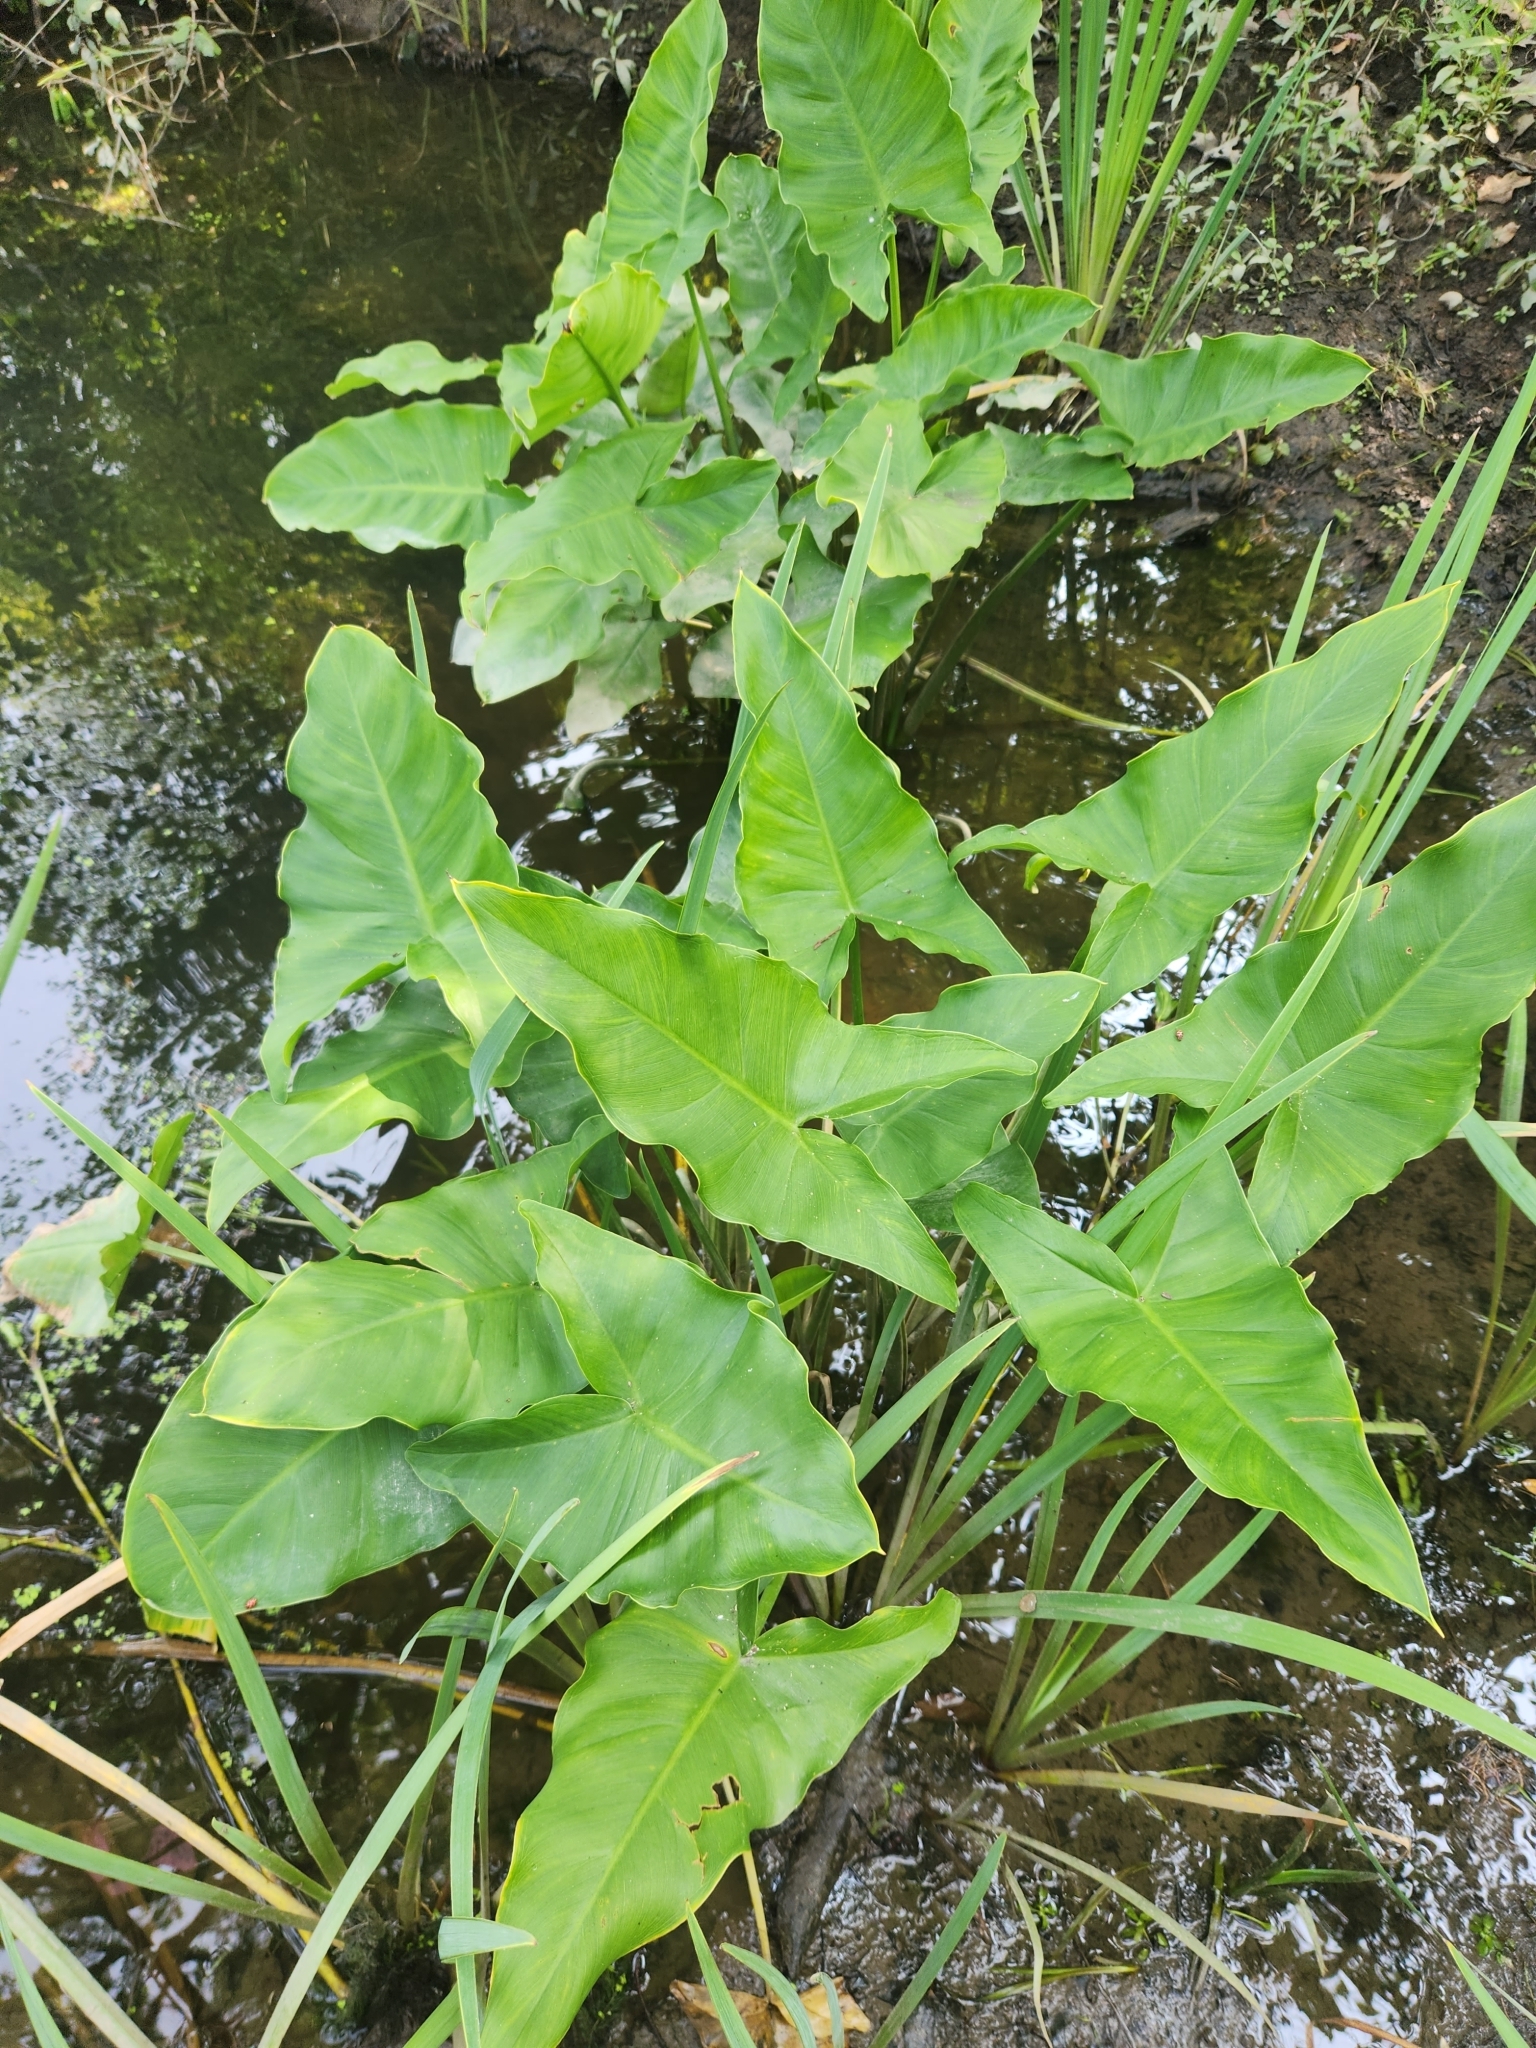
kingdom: Plantae
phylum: Tracheophyta
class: Liliopsida
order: Alismatales
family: Araceae
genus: Peltandra
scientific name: Peltandra virginica
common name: Arrow arum
